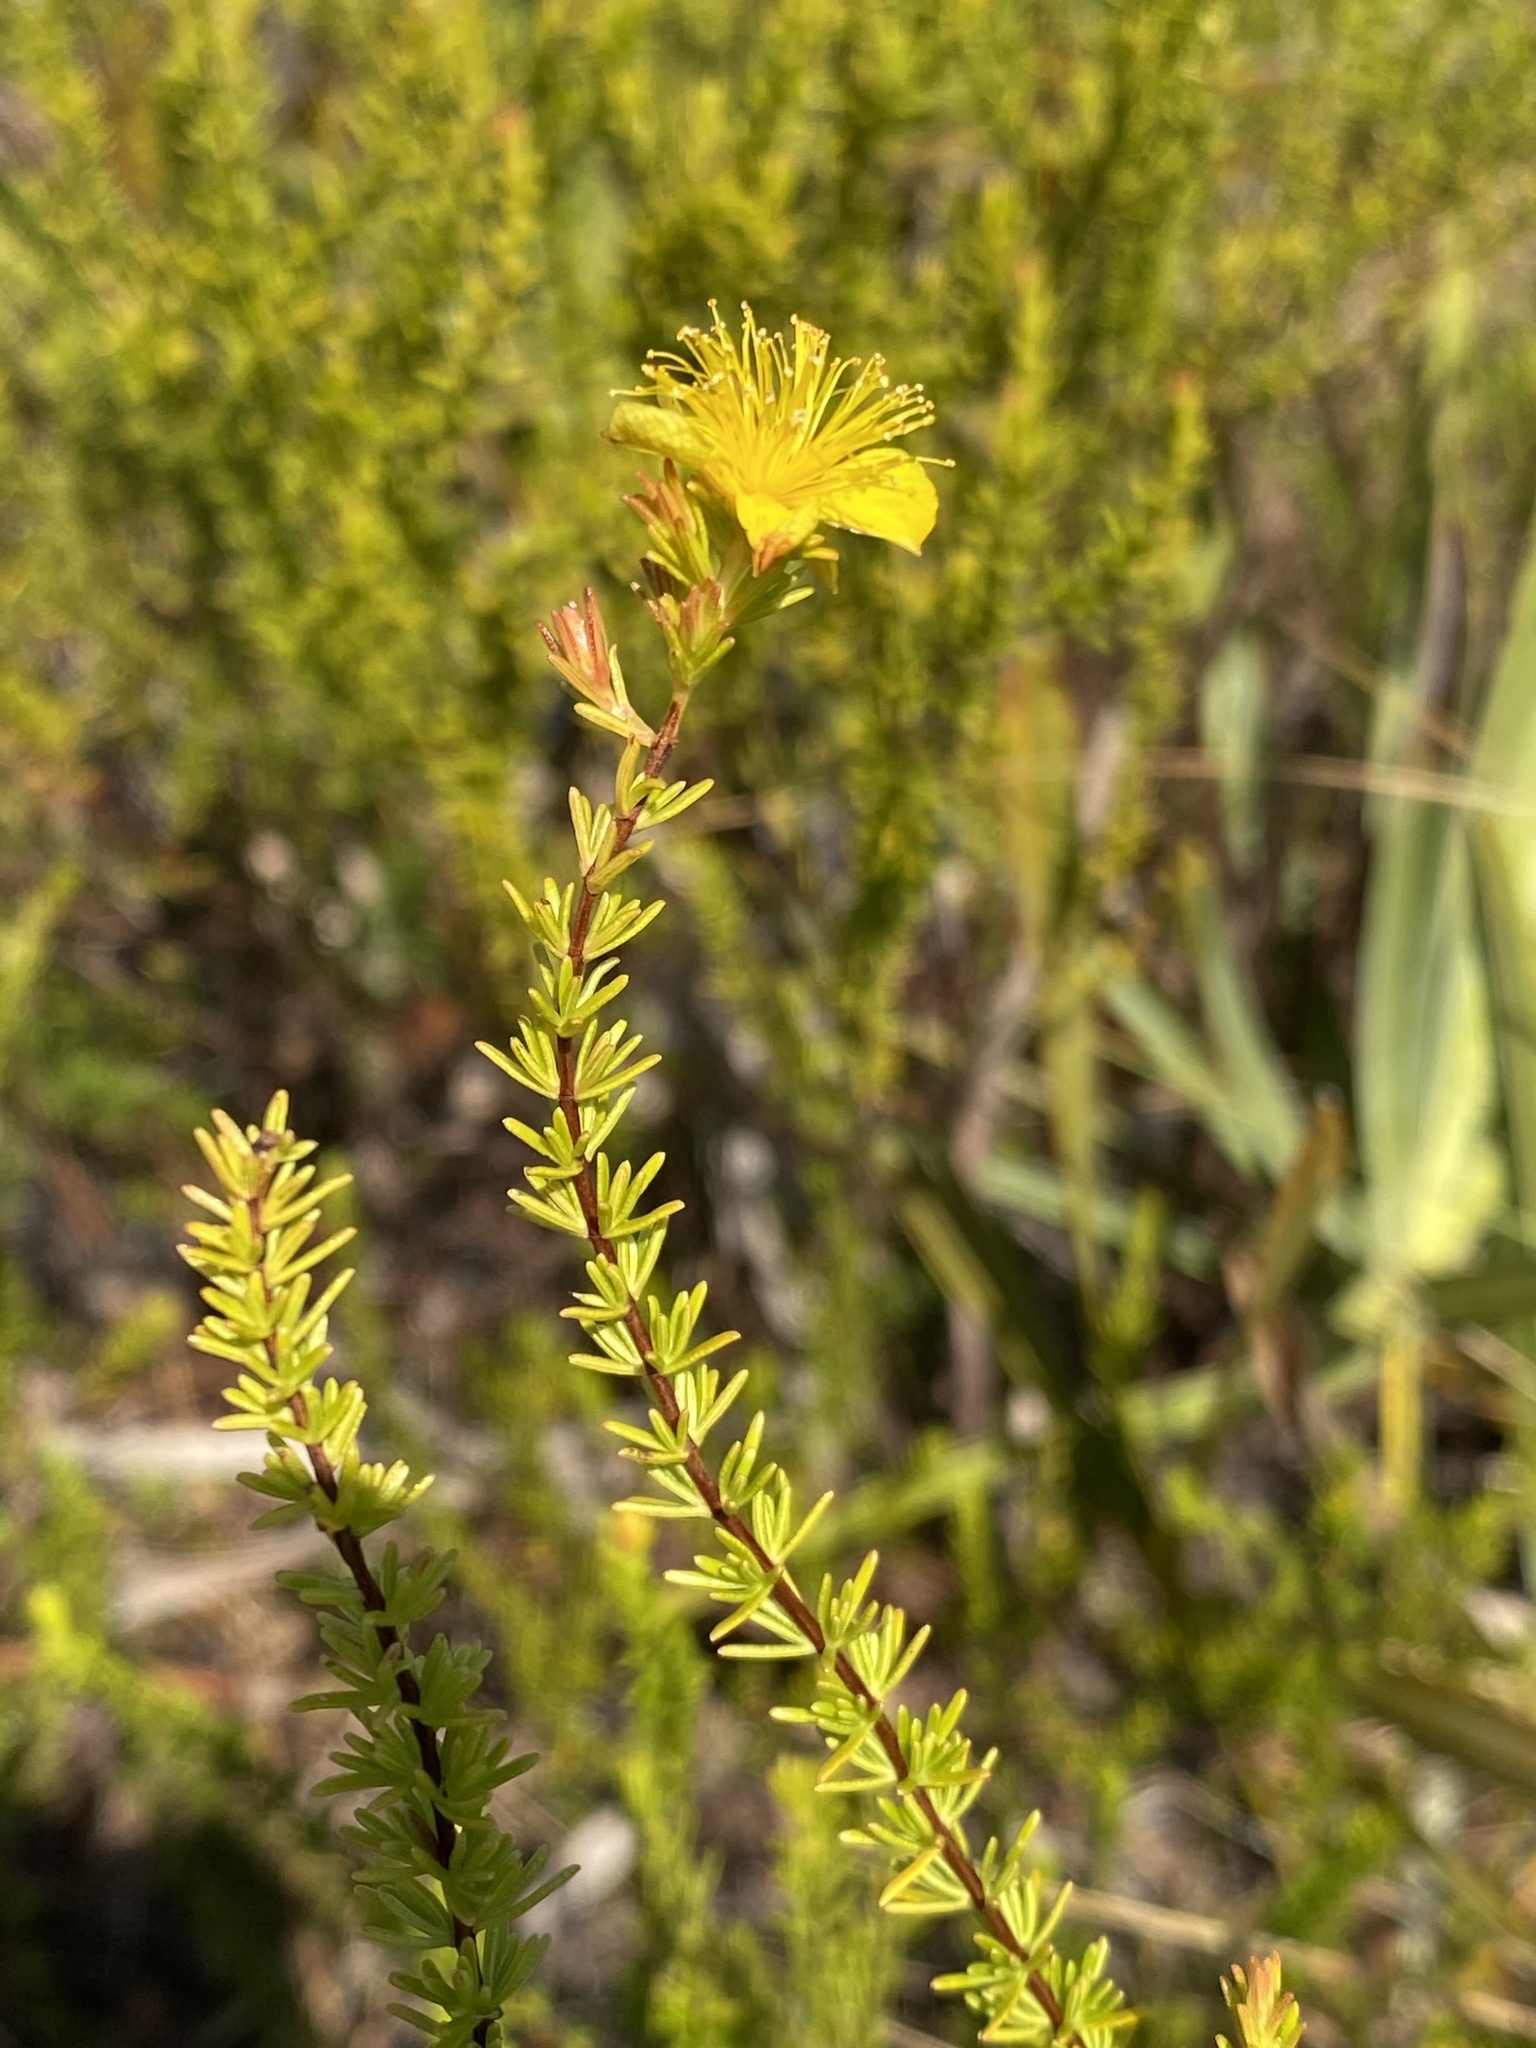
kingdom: Plantae
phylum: Tracheophyta
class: Magnoliopsida
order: Malpighiales
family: Hypericaceae
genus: Hypericum
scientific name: Hypericum tenuifolium
